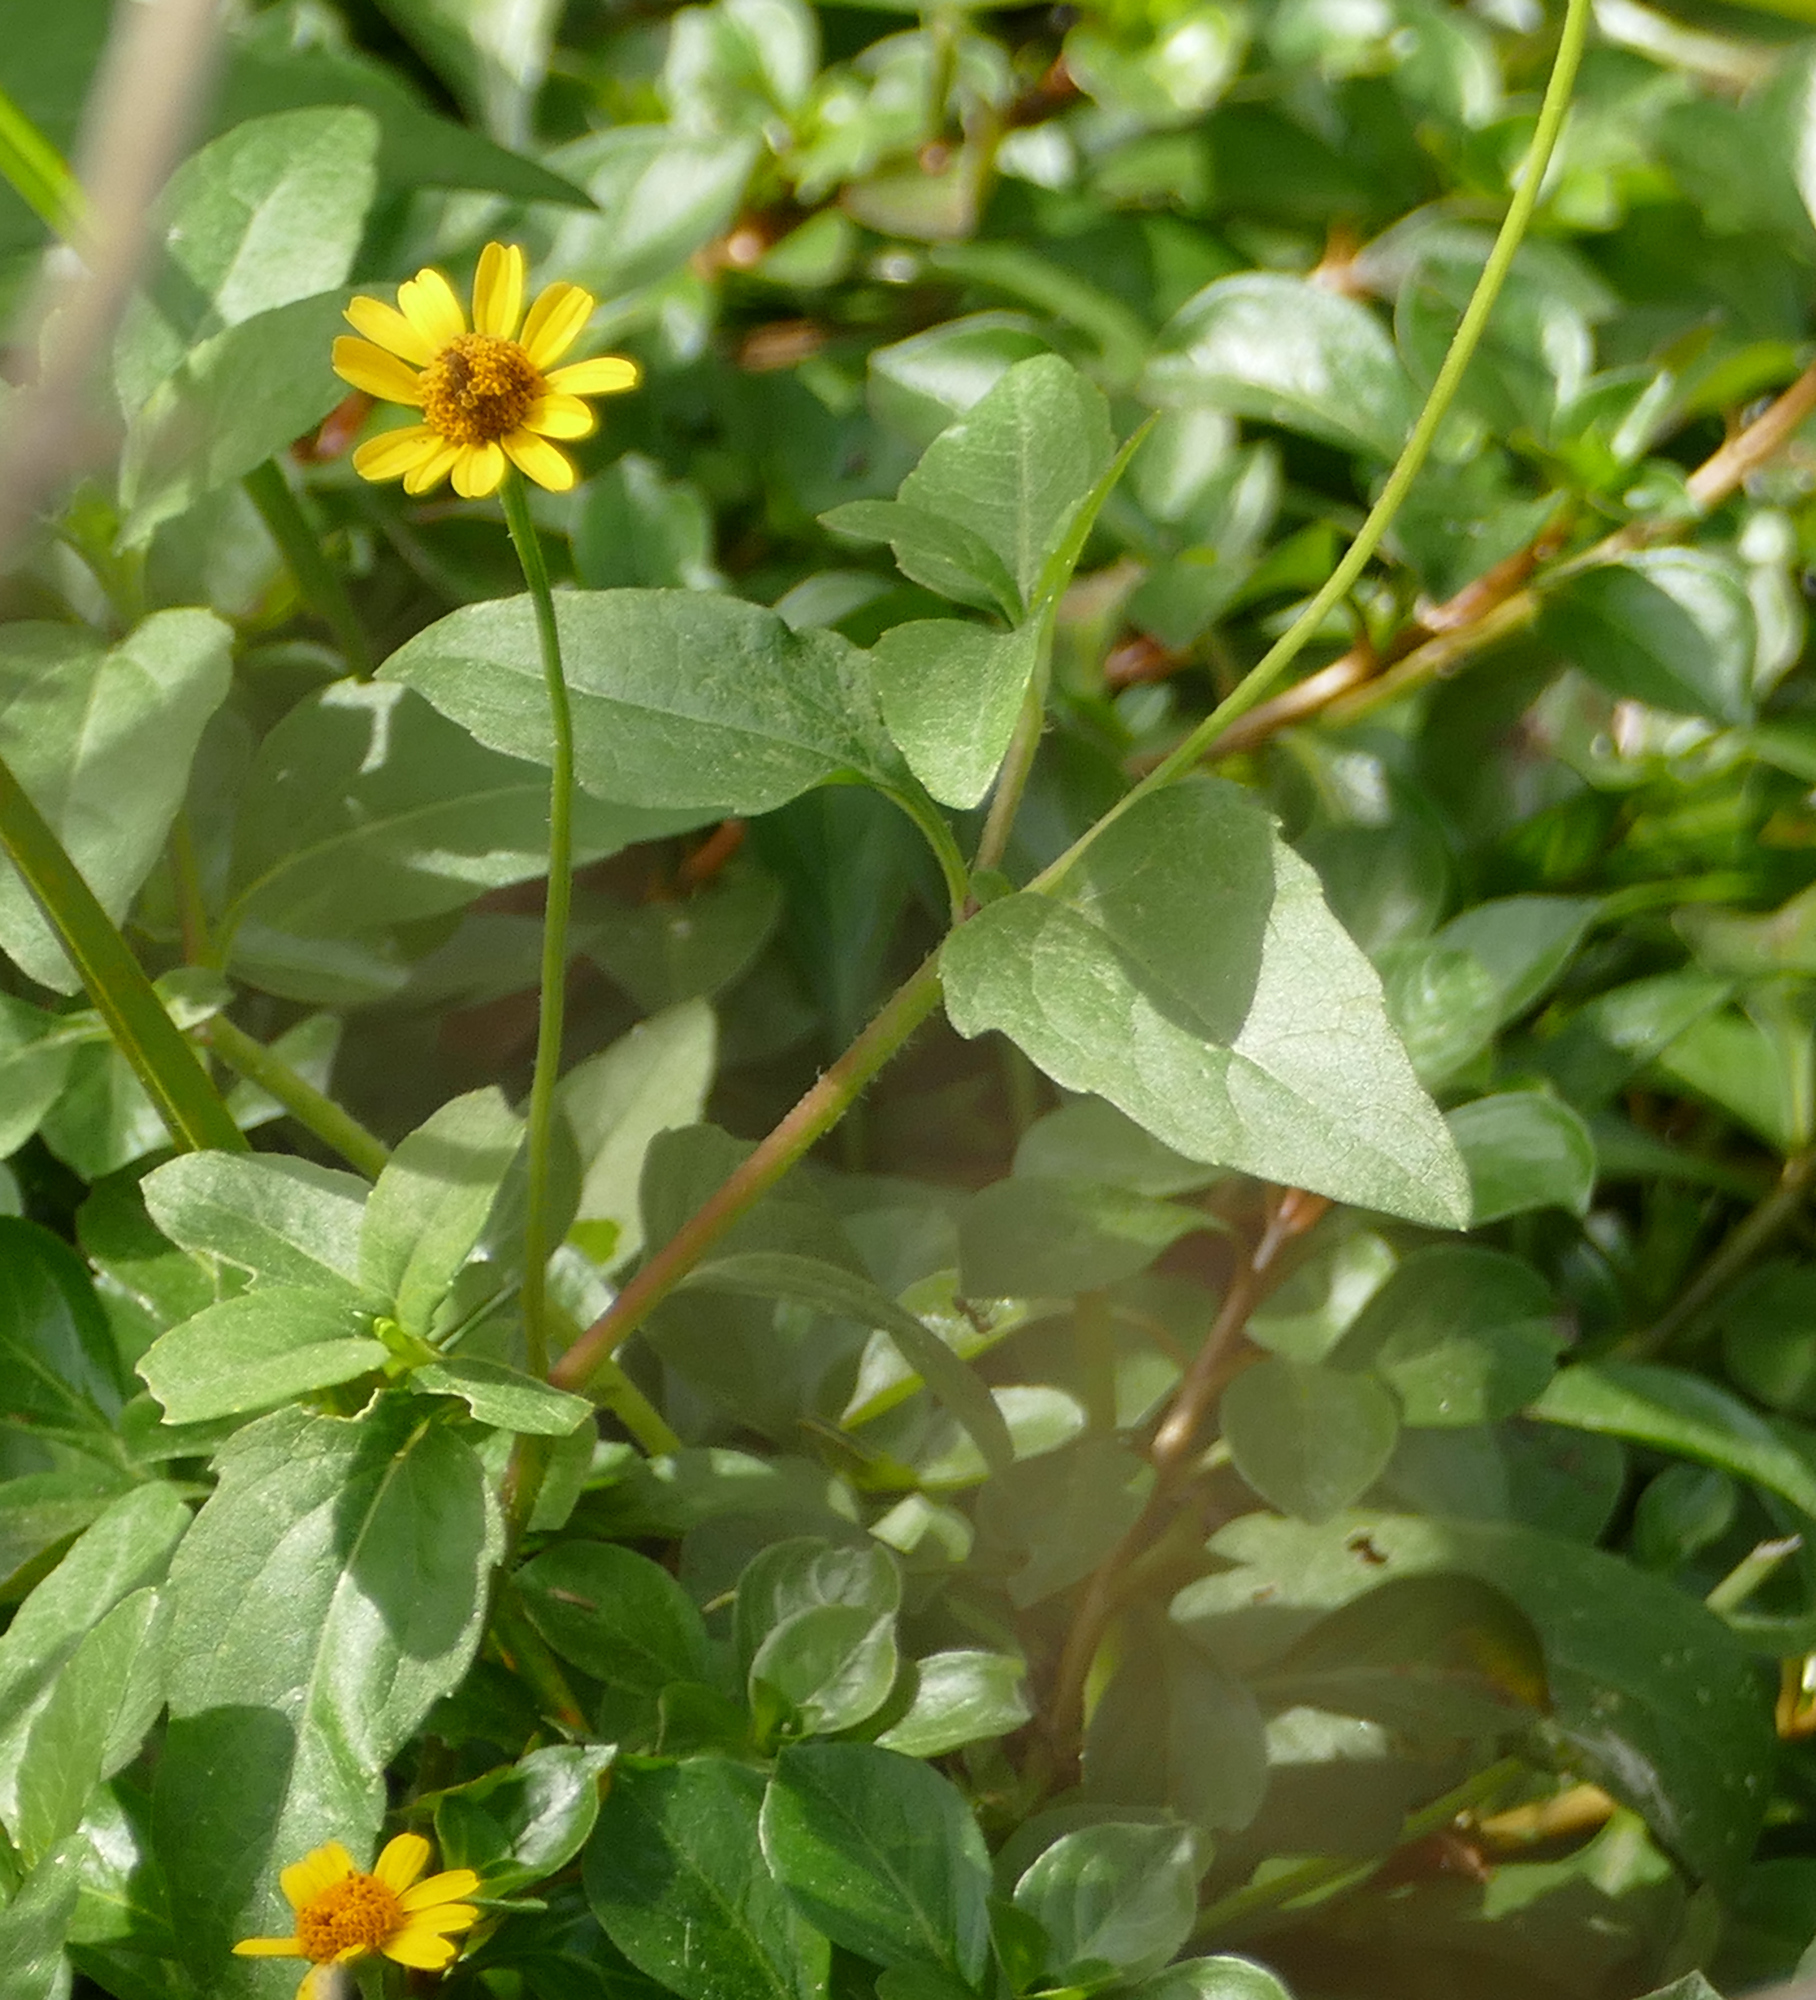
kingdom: Plantae
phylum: Tracheophyta
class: Magnoliopsida
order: Asterales
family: Asteraceae
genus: Acmella
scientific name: Acmella repens
